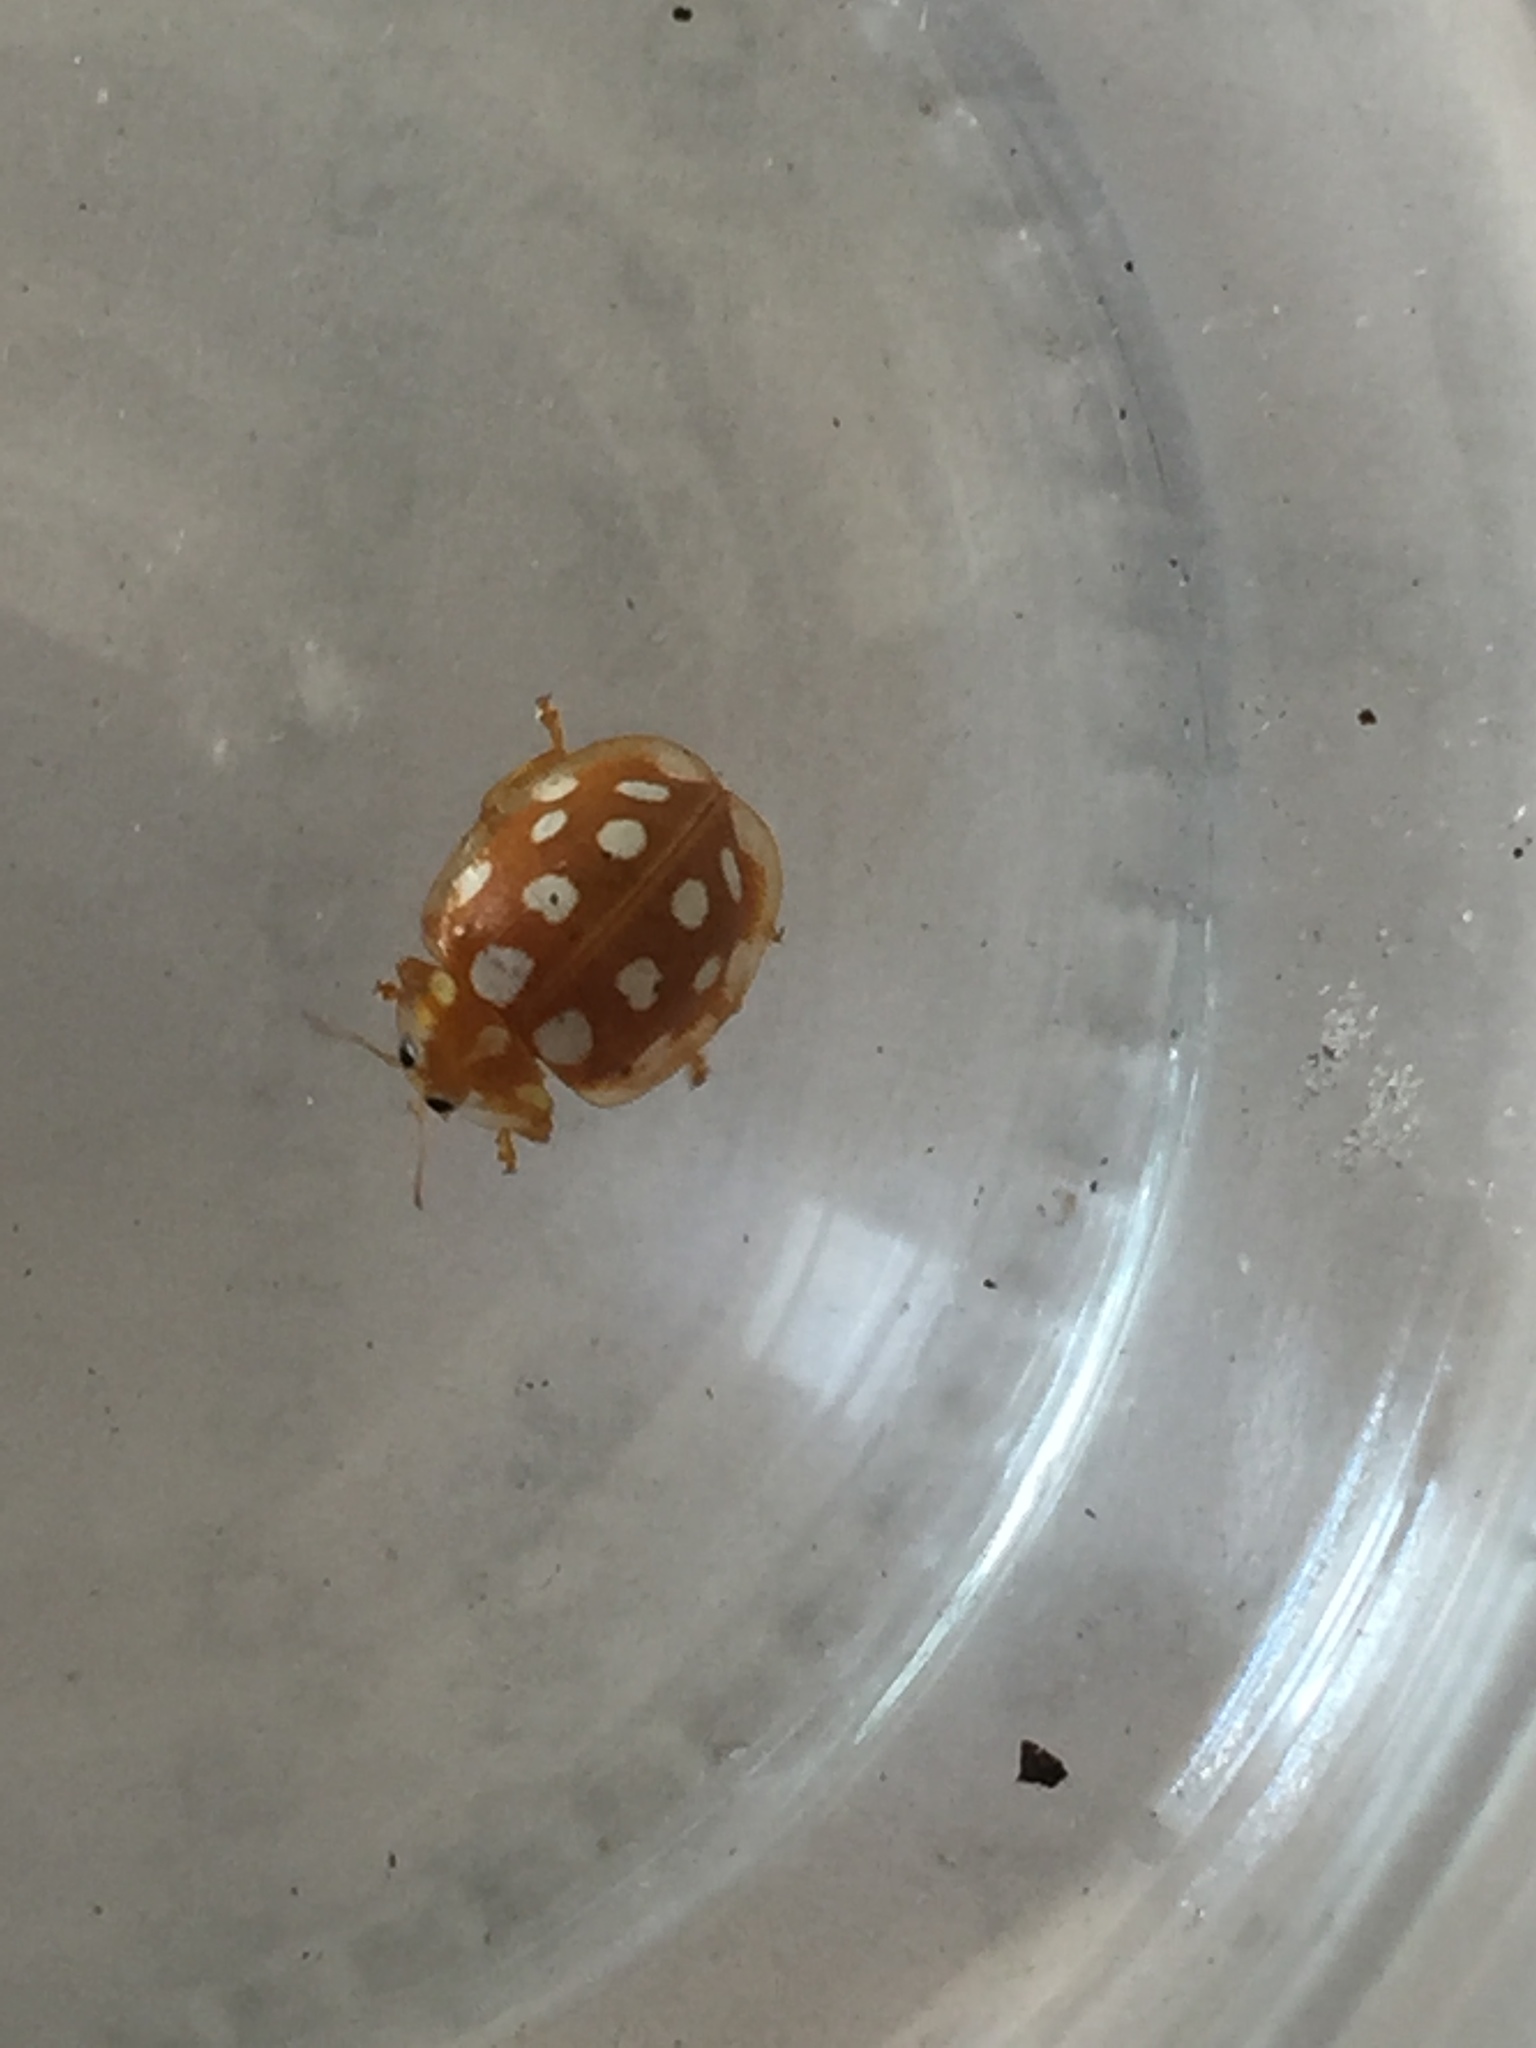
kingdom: Animalia
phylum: Arthropoda
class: Insecta
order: Coleoptera
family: Coccinellidae
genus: Halyzia
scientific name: Halyzia sedecimguttata
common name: Orange ladybird
